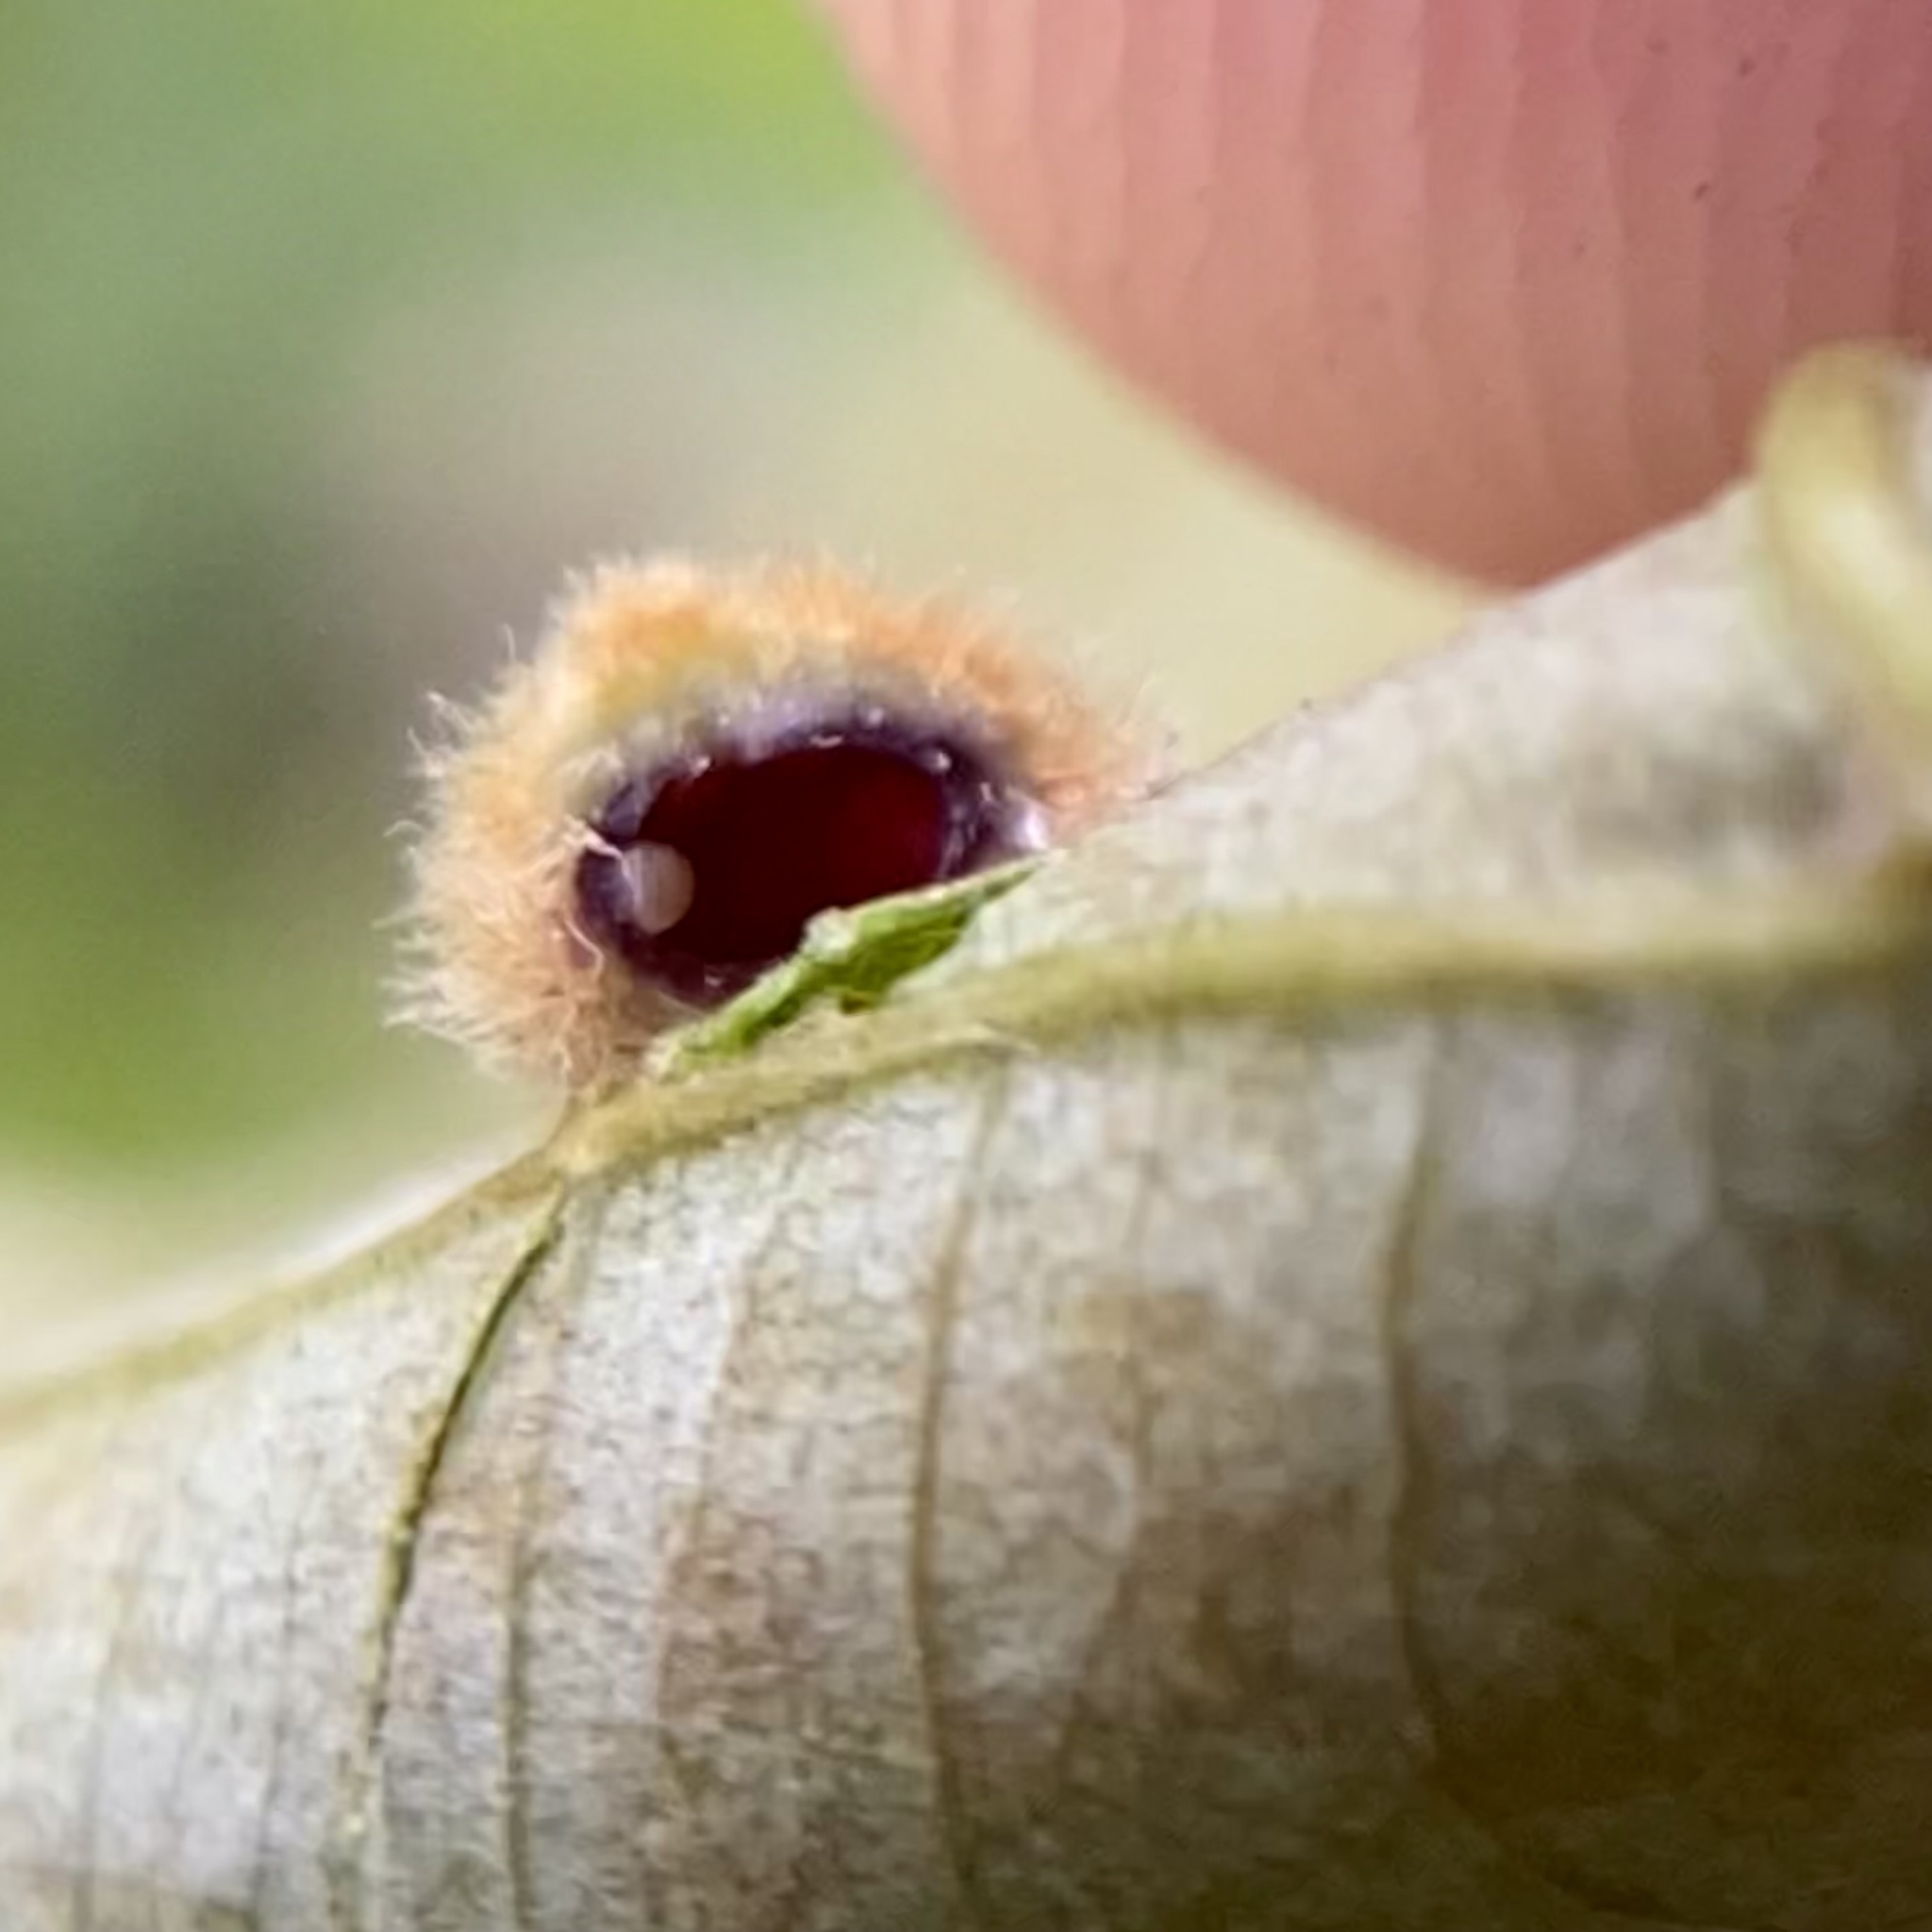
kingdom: Animalia
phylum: Arthropoda
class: Insecta
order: Diptera
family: Cecidomyiidae
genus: Caryomyia
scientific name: Caryomyia purpurea
